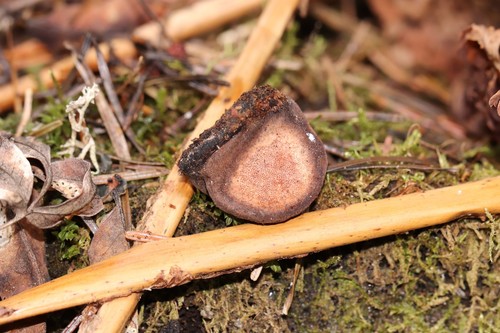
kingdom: Fungi
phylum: Basidiomycota
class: Agaricomycetes
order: Polyporales
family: Fomitopsidaceae
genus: Rhodofomes
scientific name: Rhodofomes roseus
